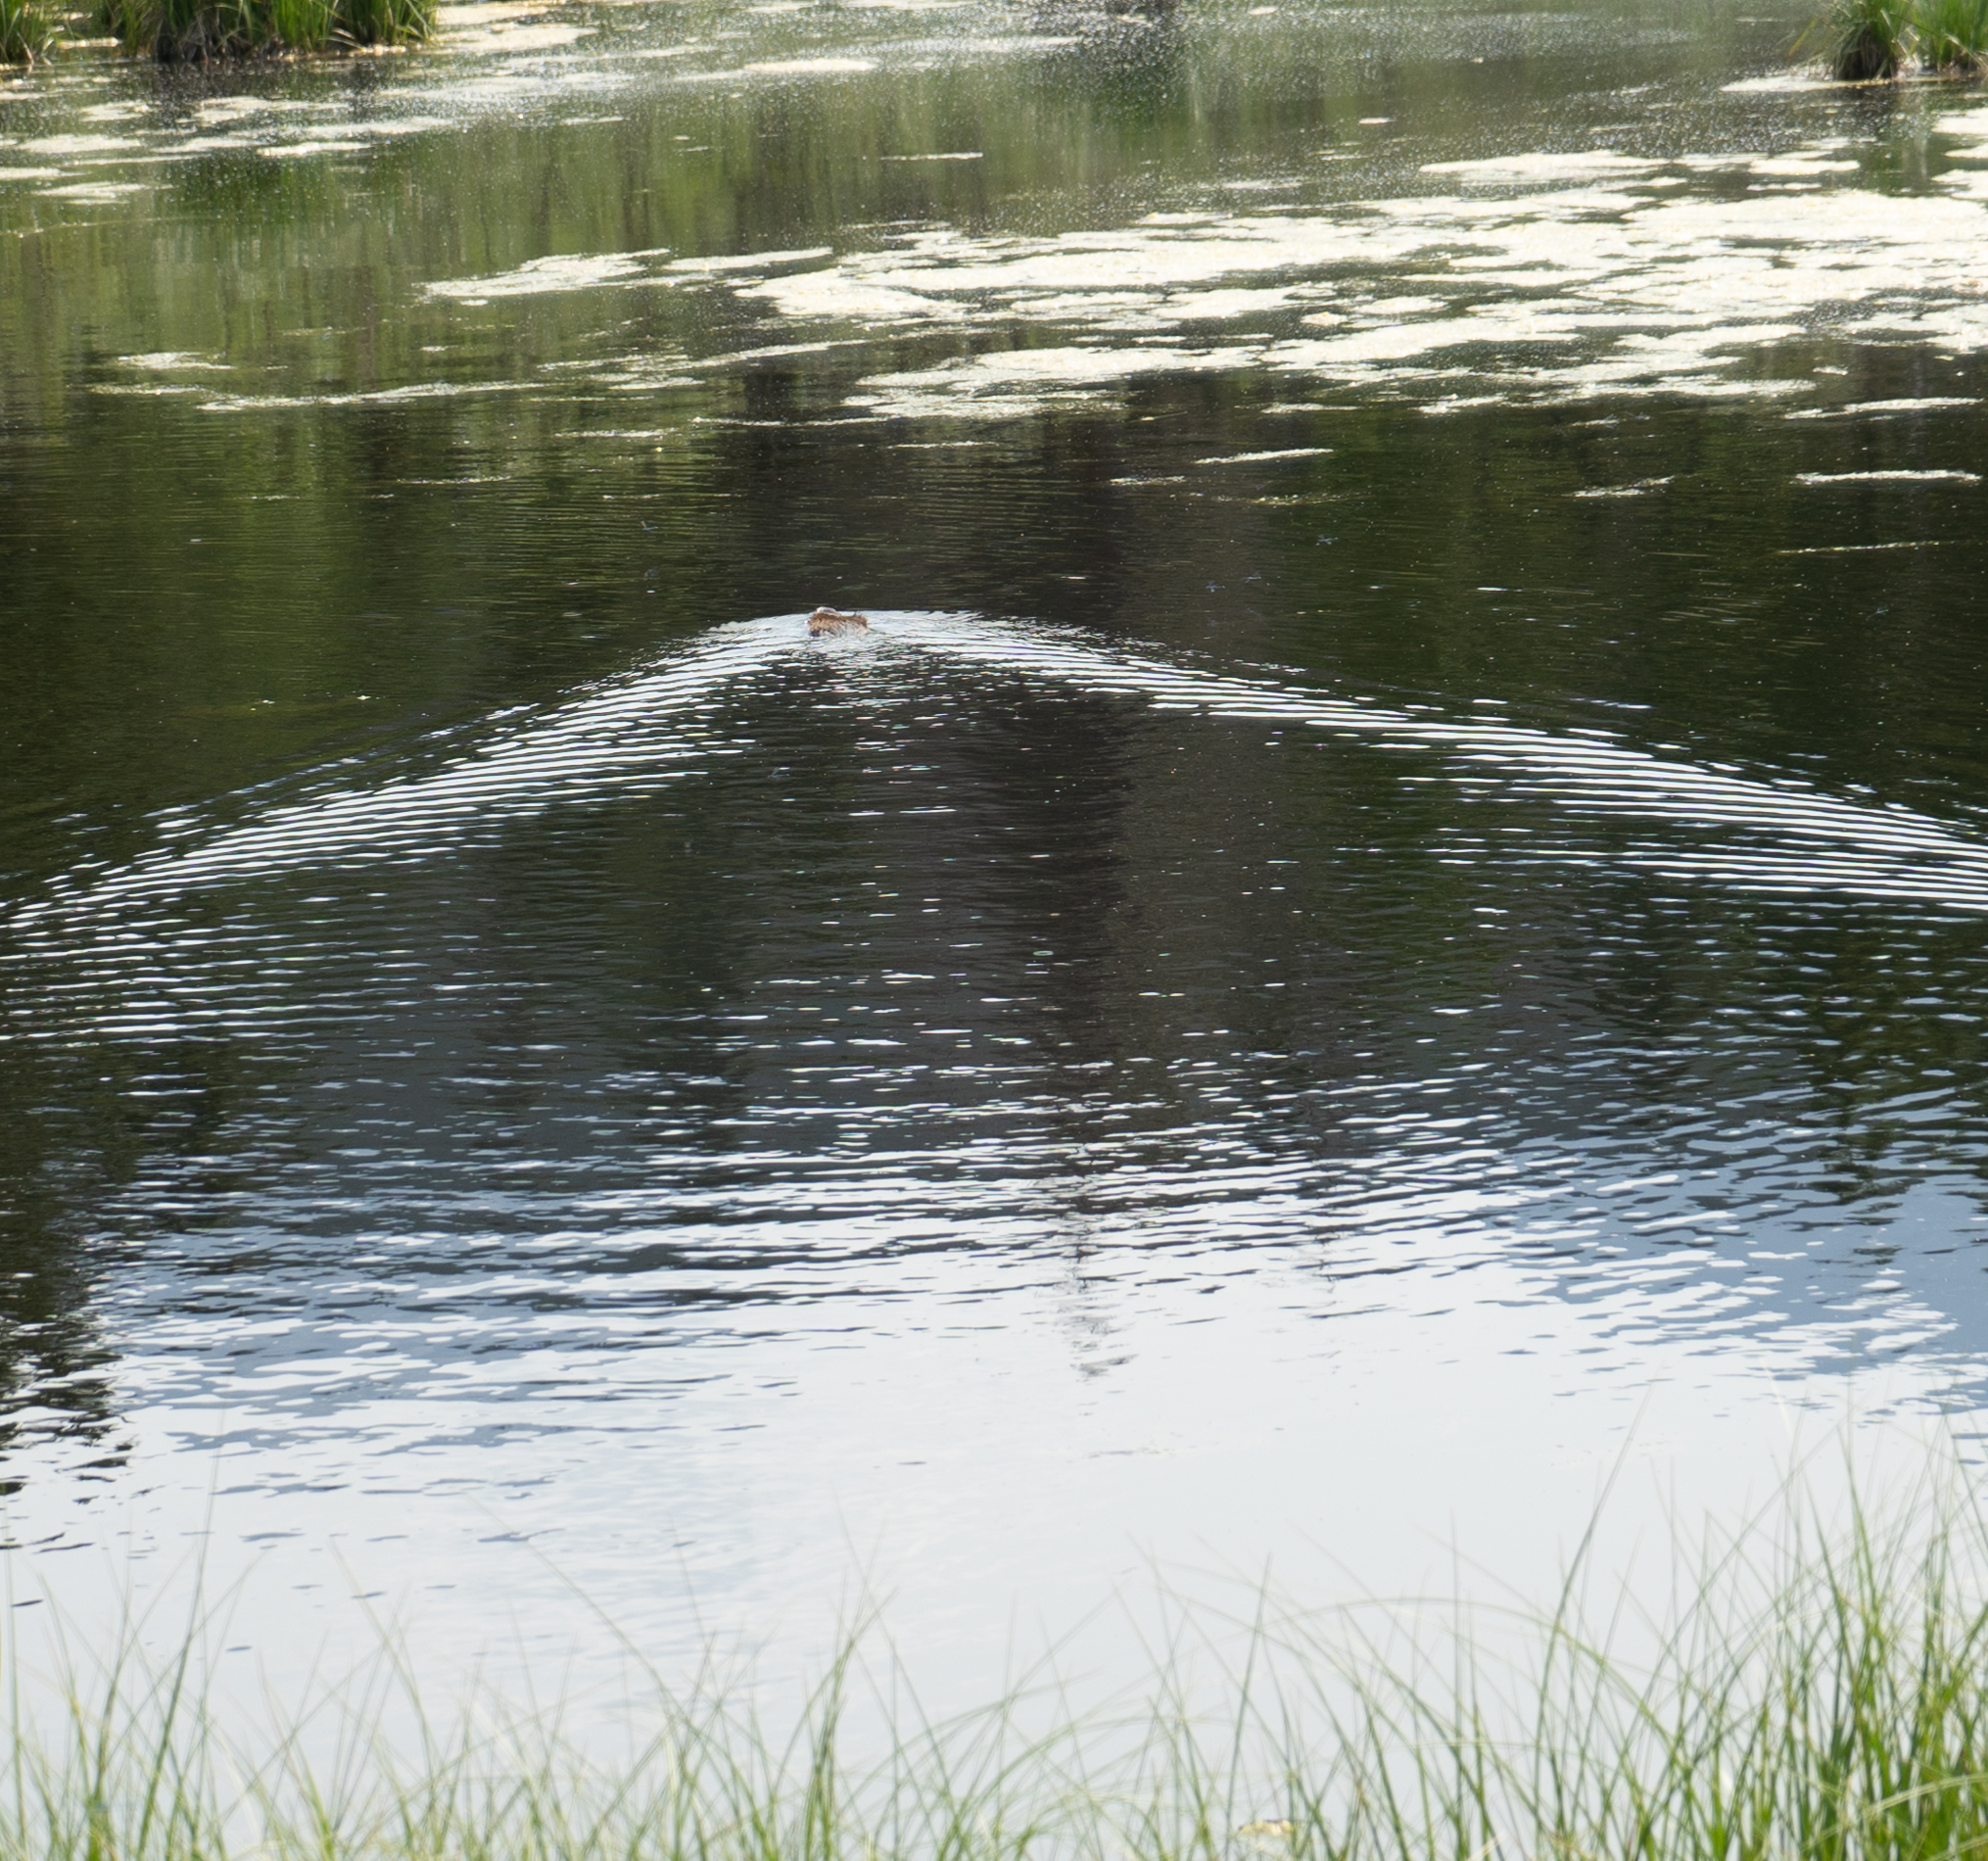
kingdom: Animalia
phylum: Chordata
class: Mammalia
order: Rodentia
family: Castoridae
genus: Castor
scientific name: Castor canadensis
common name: American beaver
